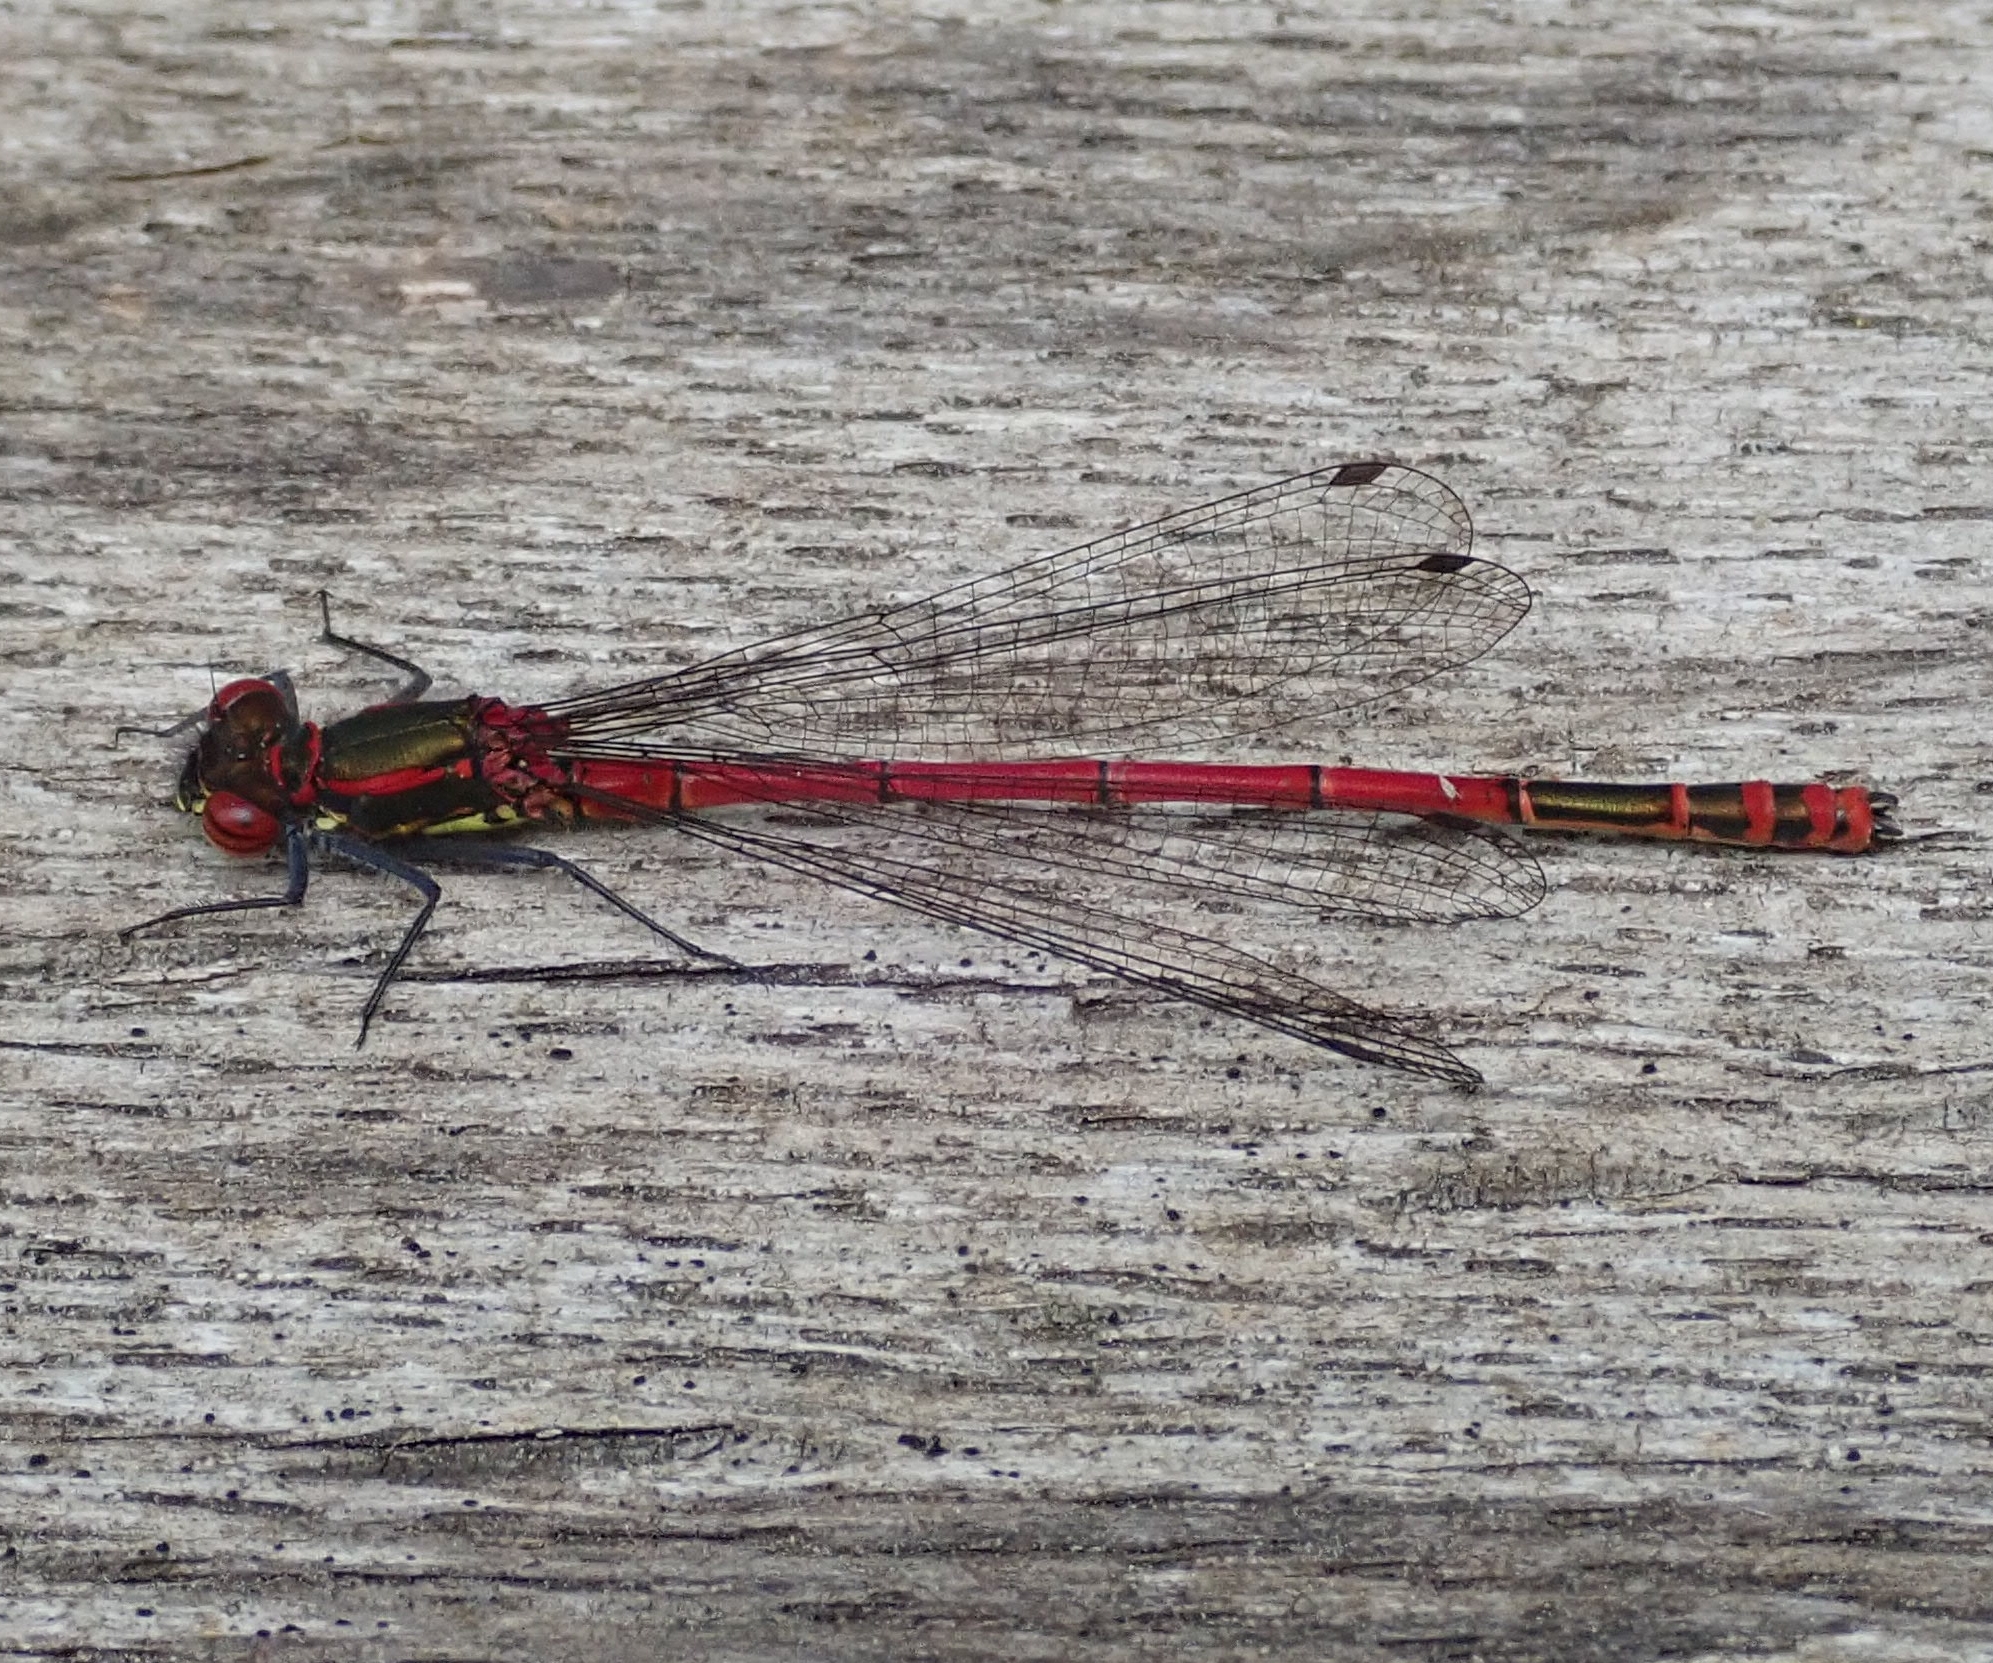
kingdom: Animalia
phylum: Arthropoda
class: Insecta
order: Odonata
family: Coenagrionidae
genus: Pyrrhosoma
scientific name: Pyrrhosoma nymphula
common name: Large red damsel
